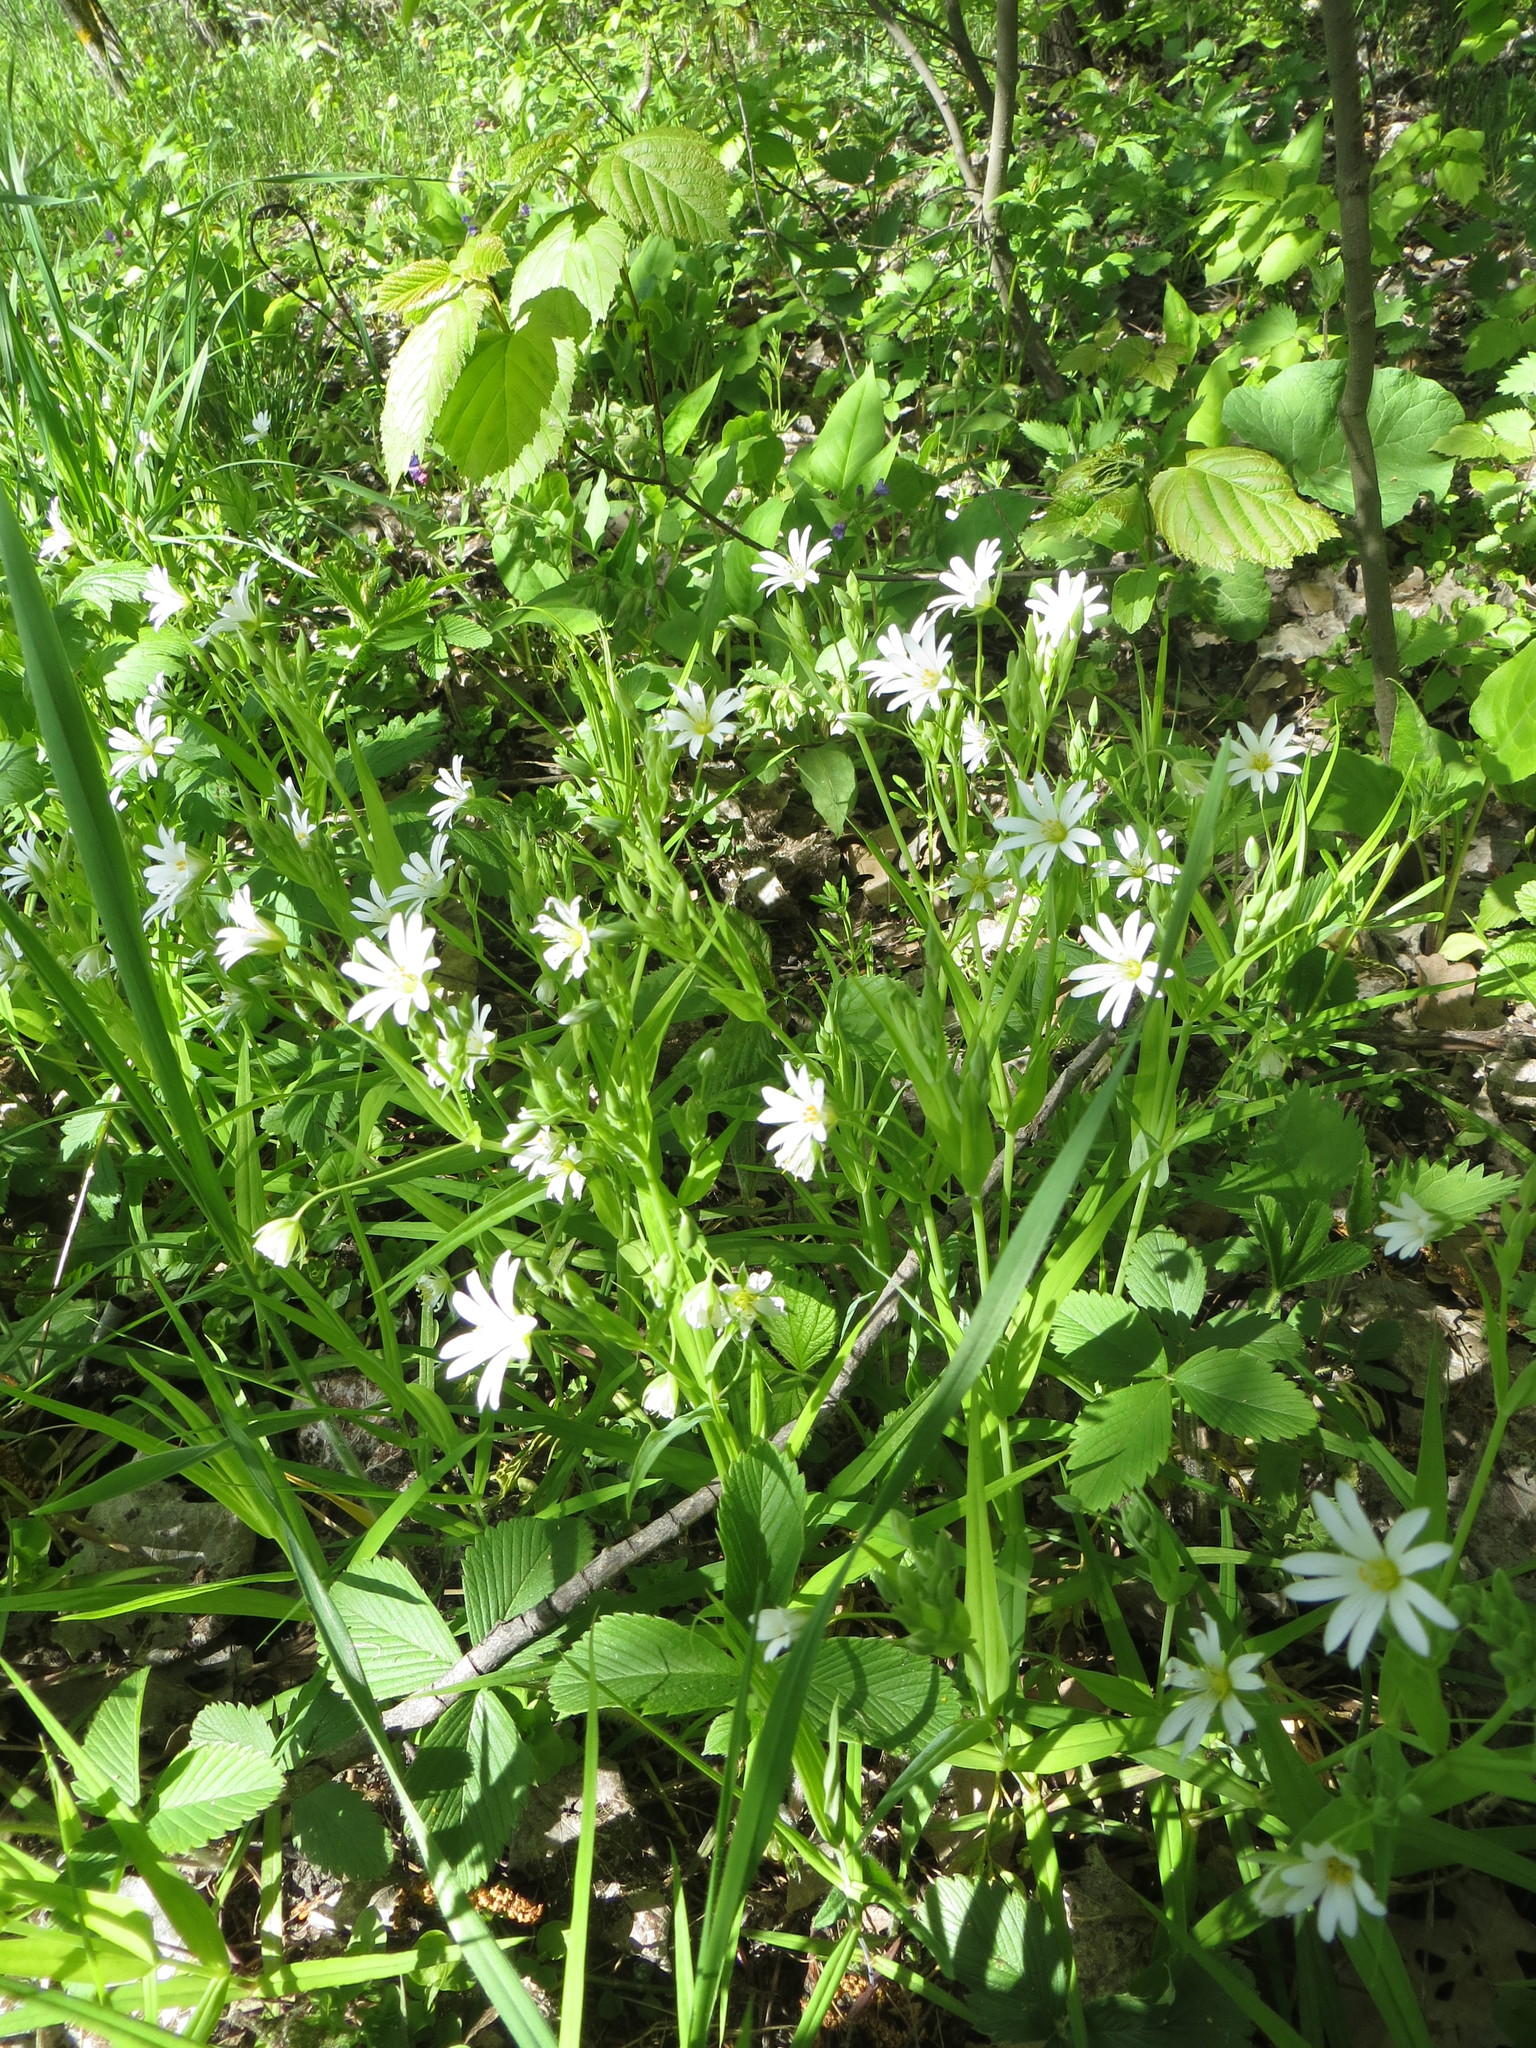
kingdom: Plantae
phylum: Tracheophyta
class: Magnoliopsida
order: Caryophyllales
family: Caryophyllaceae
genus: Rabelera
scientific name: Rabelera holostea
